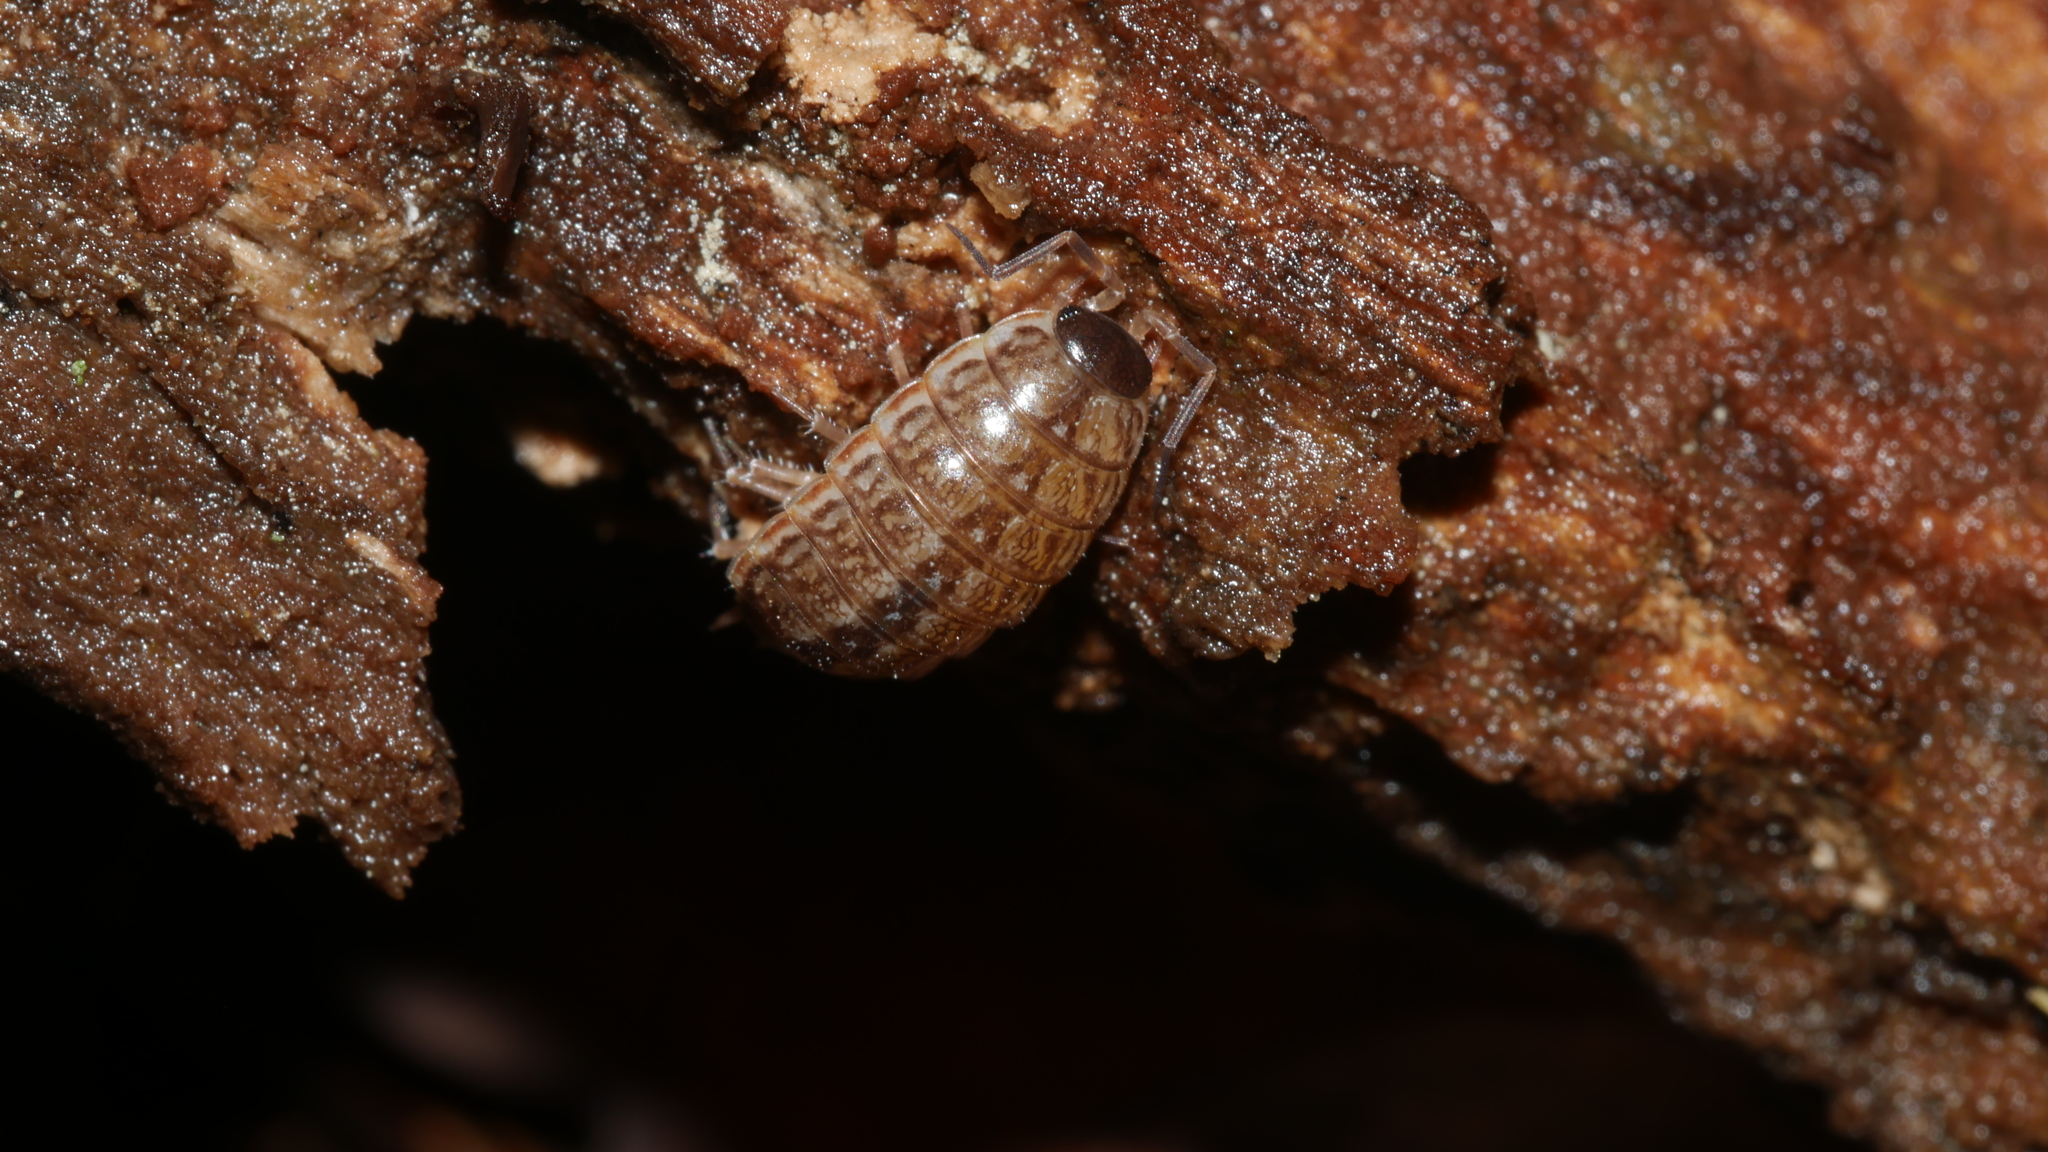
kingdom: Animalia
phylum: Arthropoda
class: Malacostraca
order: Isopoda
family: Philosciidae
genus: Philoscia
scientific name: Philoscia muscorum
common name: Common striped woodlouse
